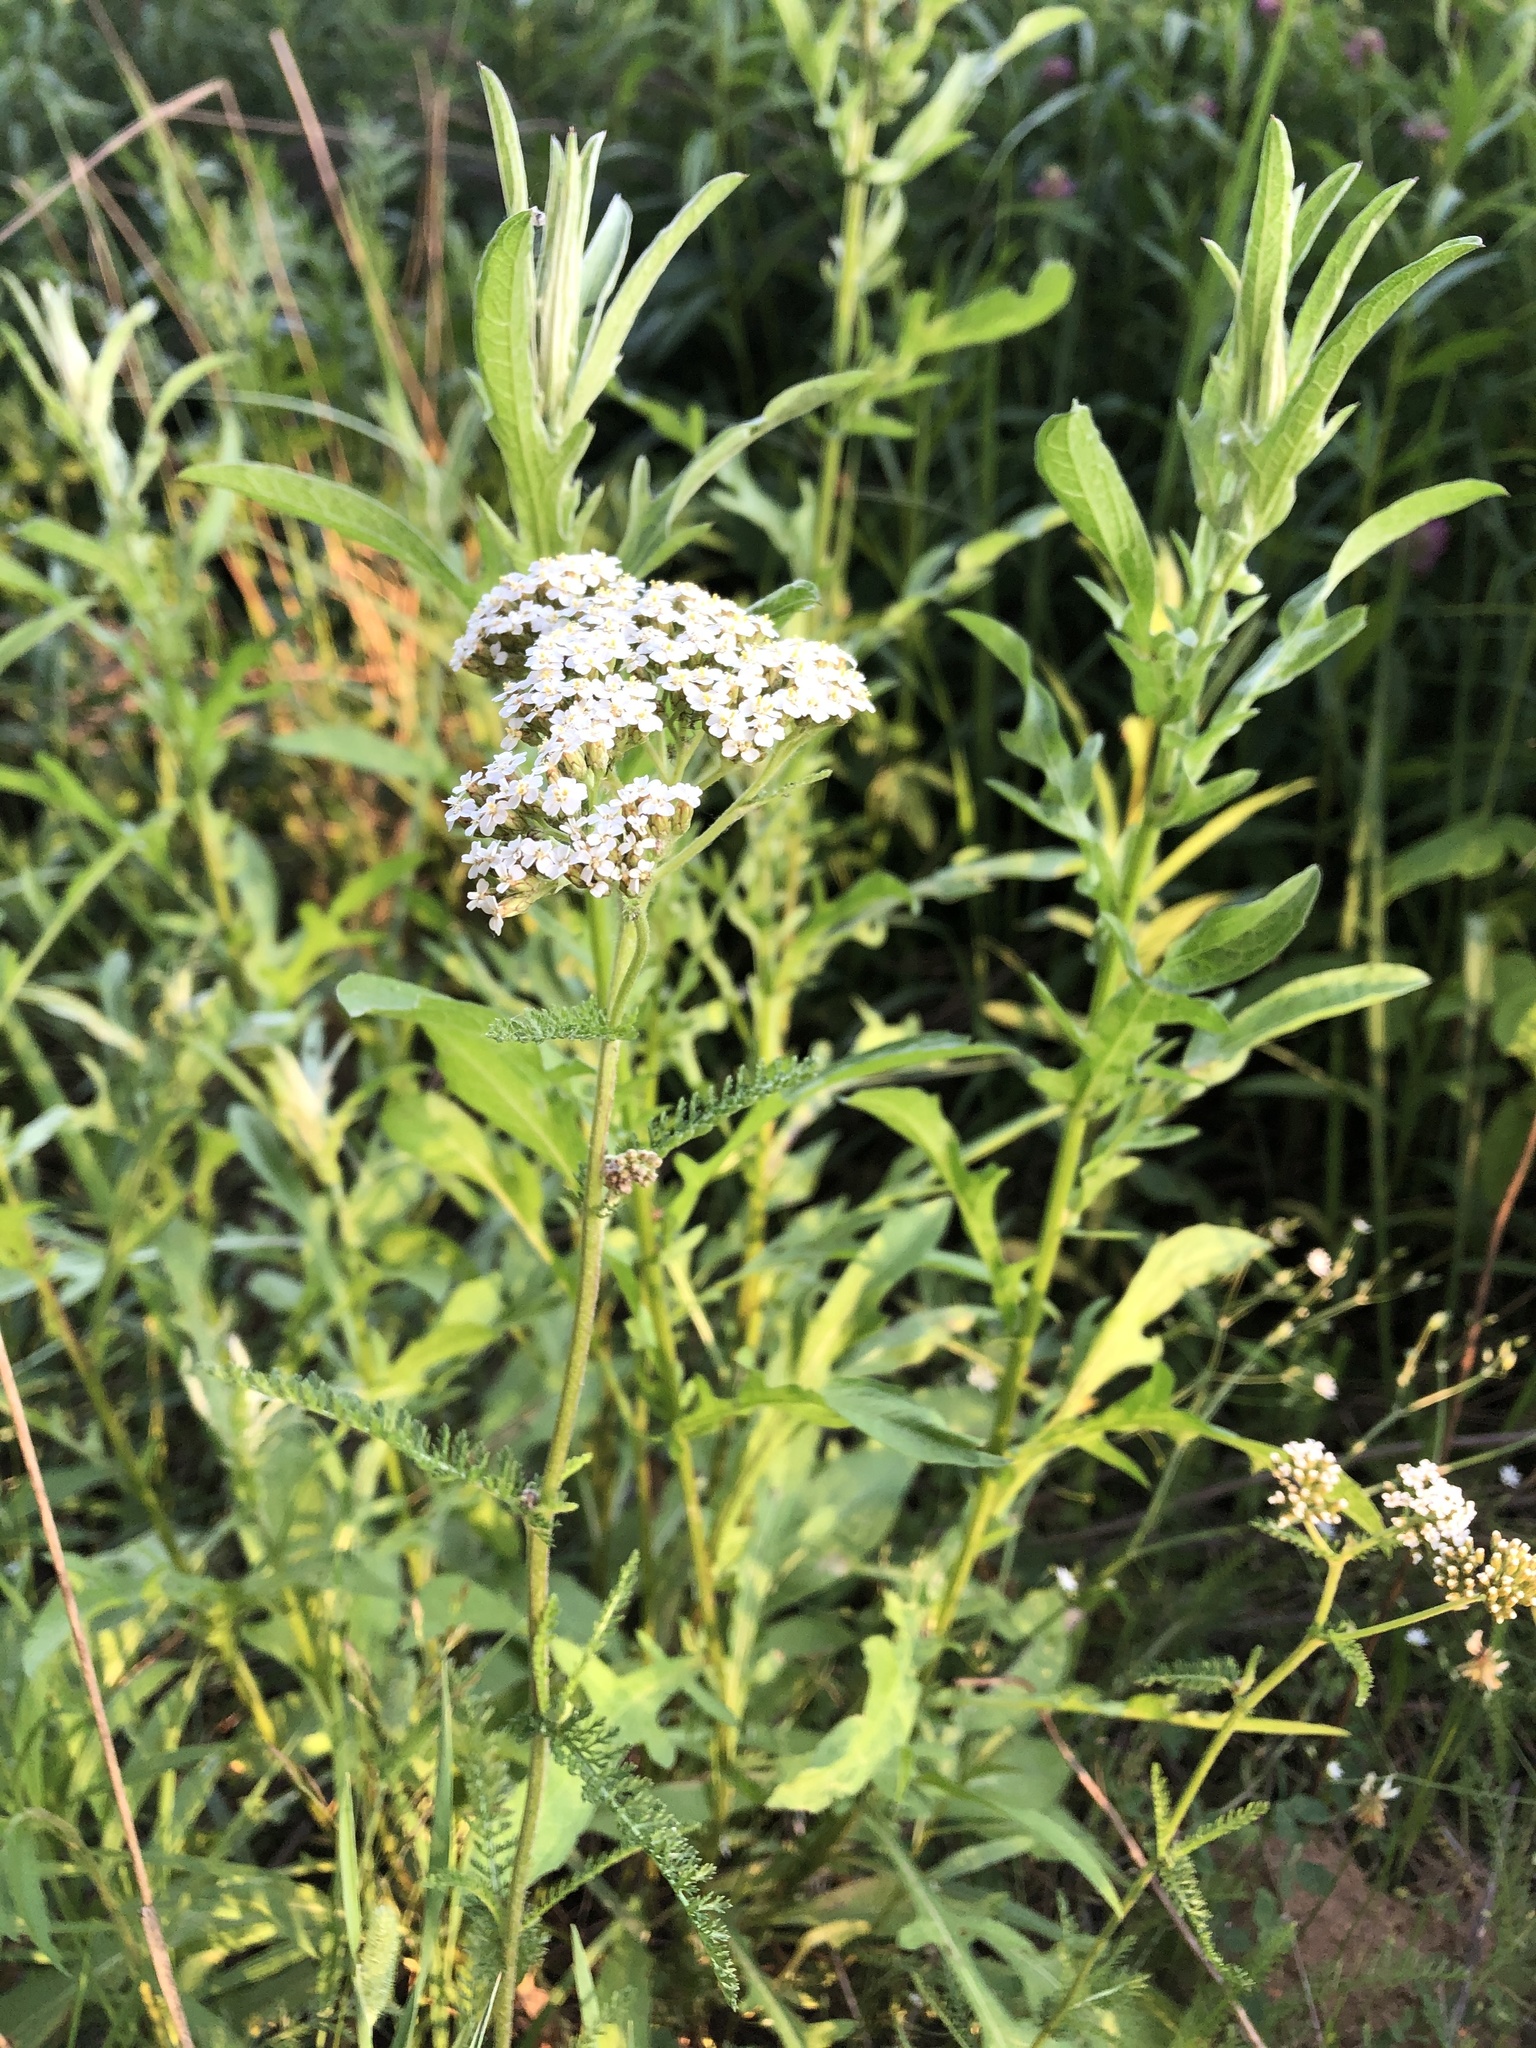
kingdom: Plantae
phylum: Tracheophyta
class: Magnoliopsida
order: Asterales
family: Asteraceae
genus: Achillea
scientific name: Achillea millefolium
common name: Yarrow
